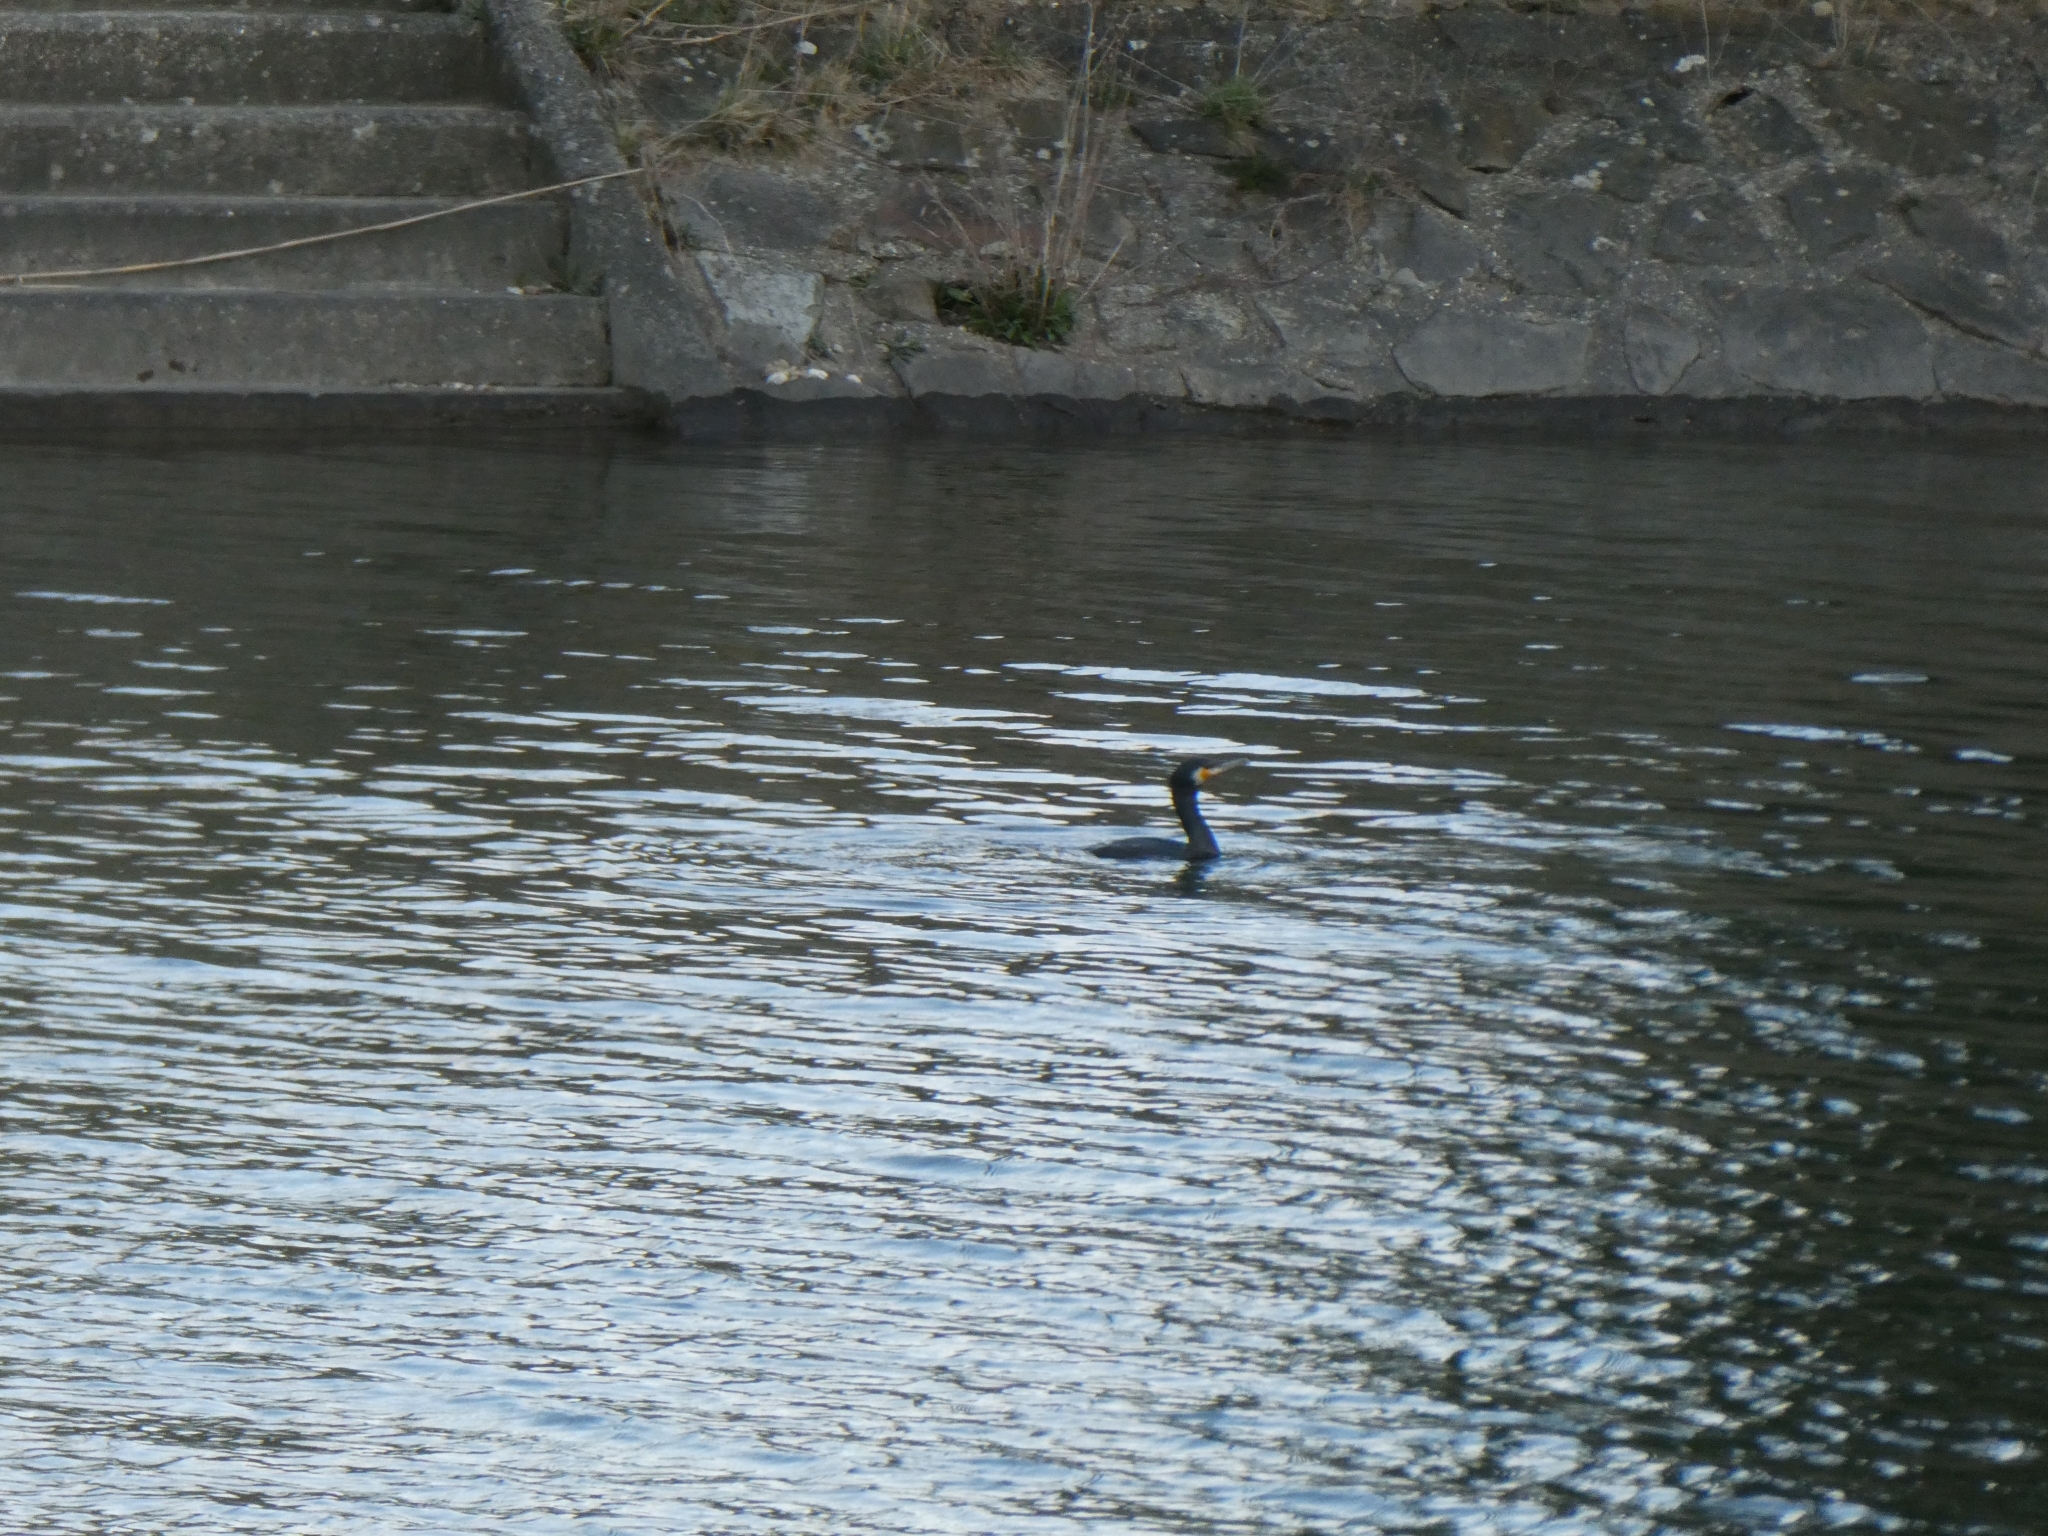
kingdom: Animalia
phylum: Chordata
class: Aves
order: Suliformes
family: Phalacrocoracidae
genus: Phalacrocorax
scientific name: Phalacrocorax carbo
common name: Great cormorant
